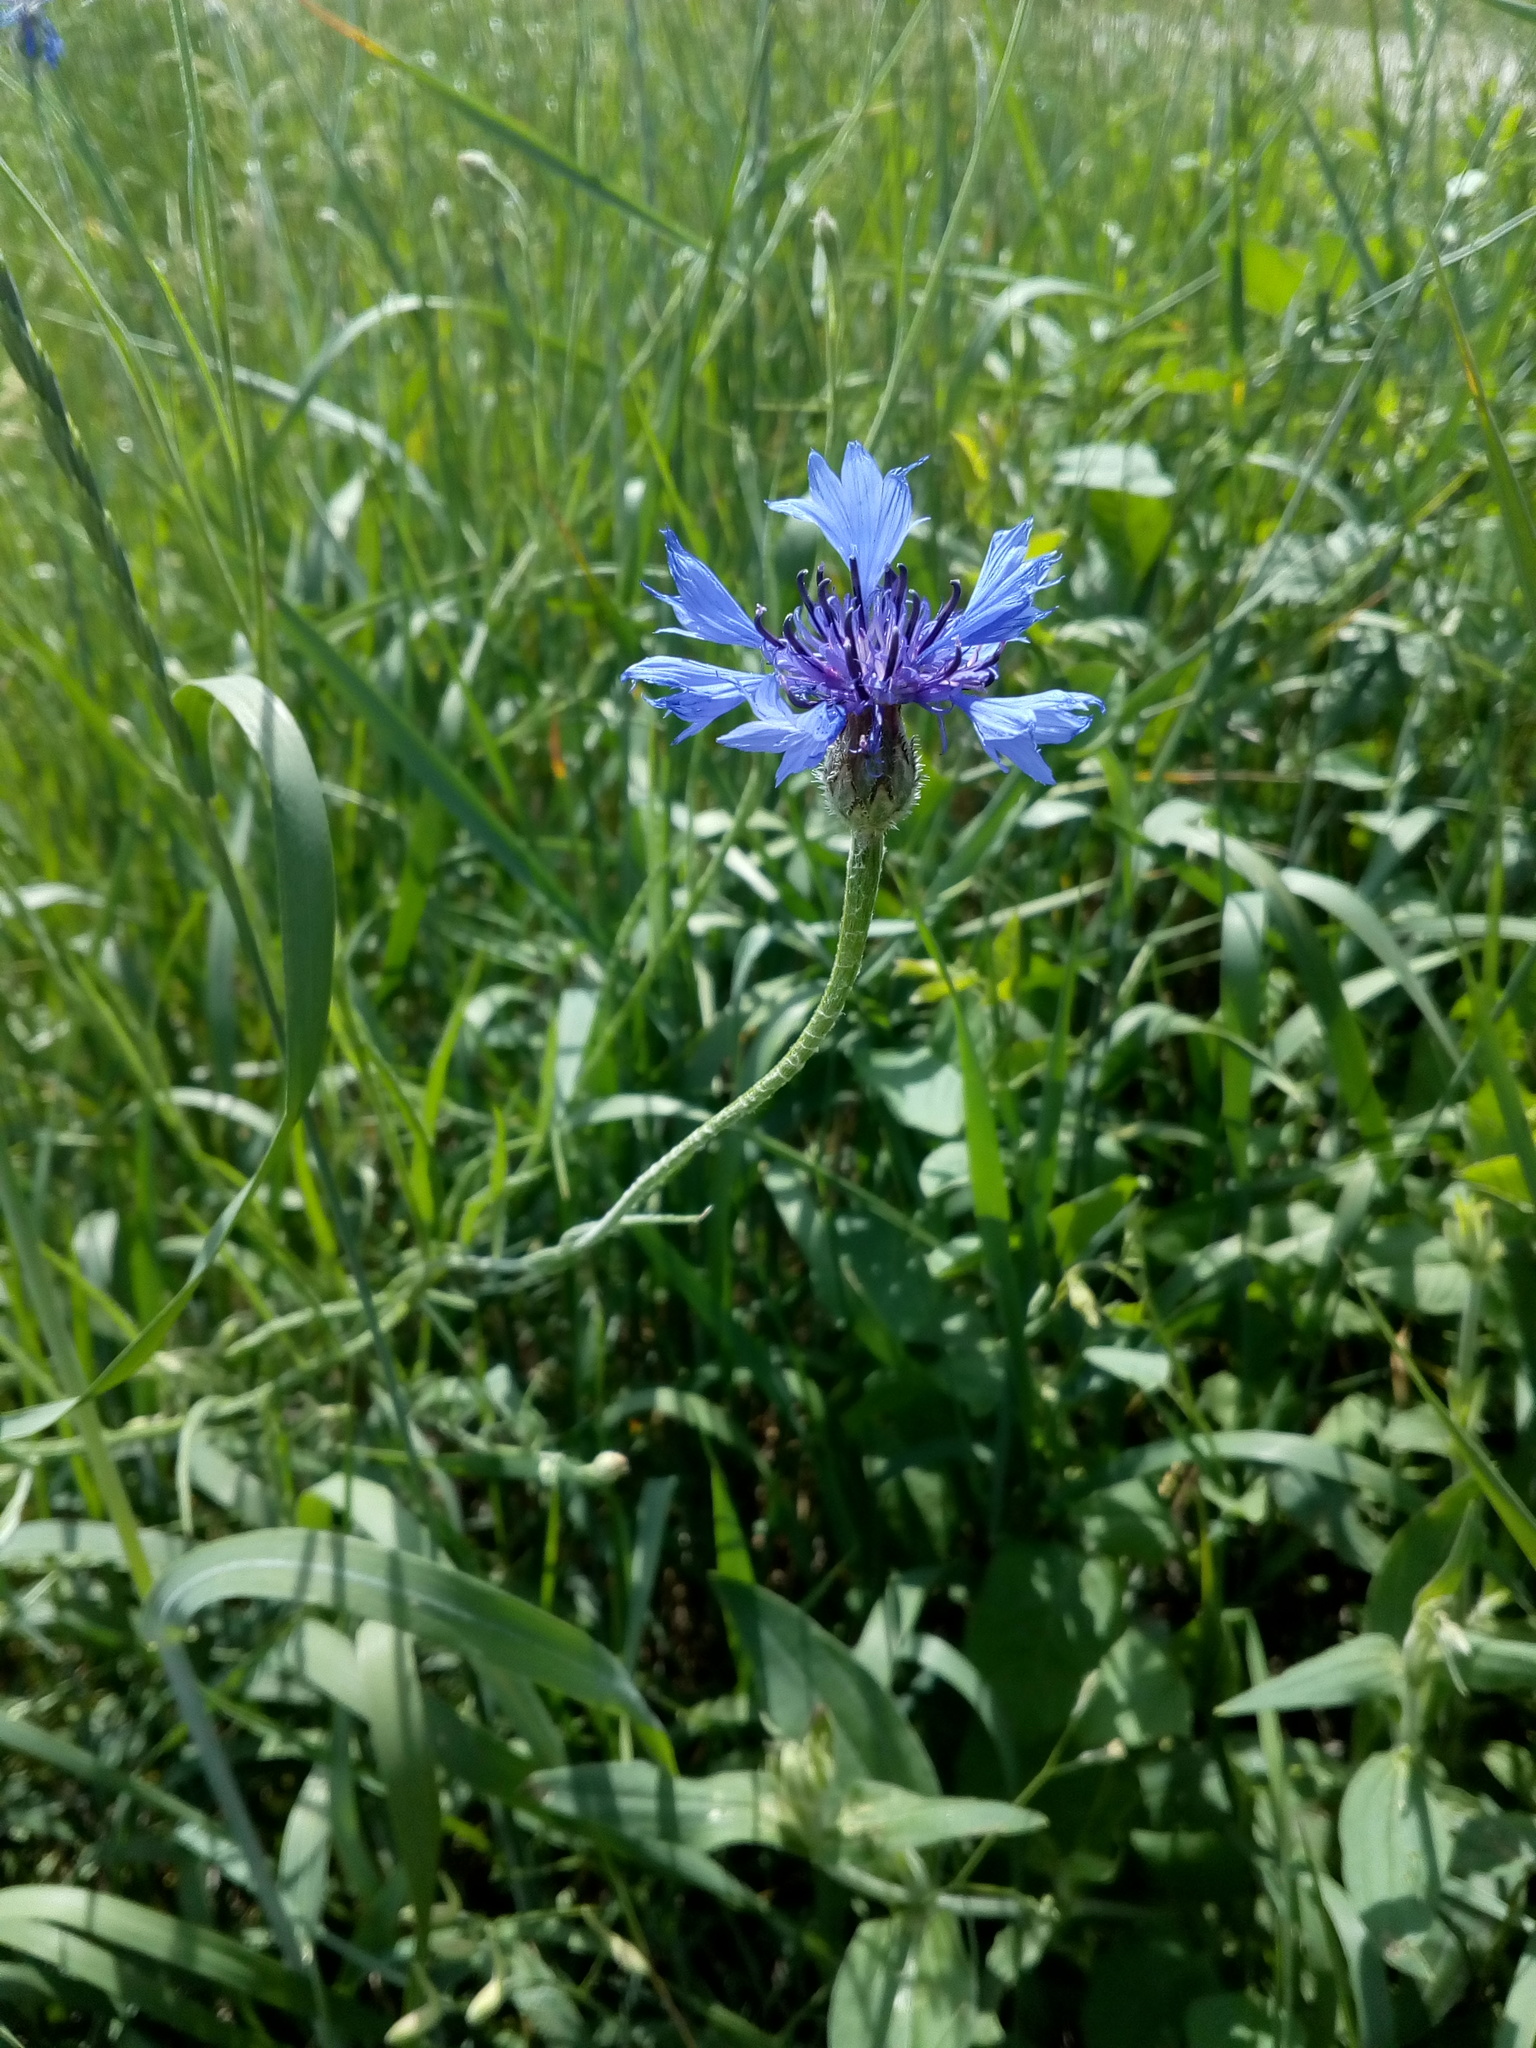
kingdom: Plantae
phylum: Tracheophyta
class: Magnoliopsida
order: Asterales
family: Asteraceae
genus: Centaurea
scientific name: Centaurea cyanus
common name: Cornflower
